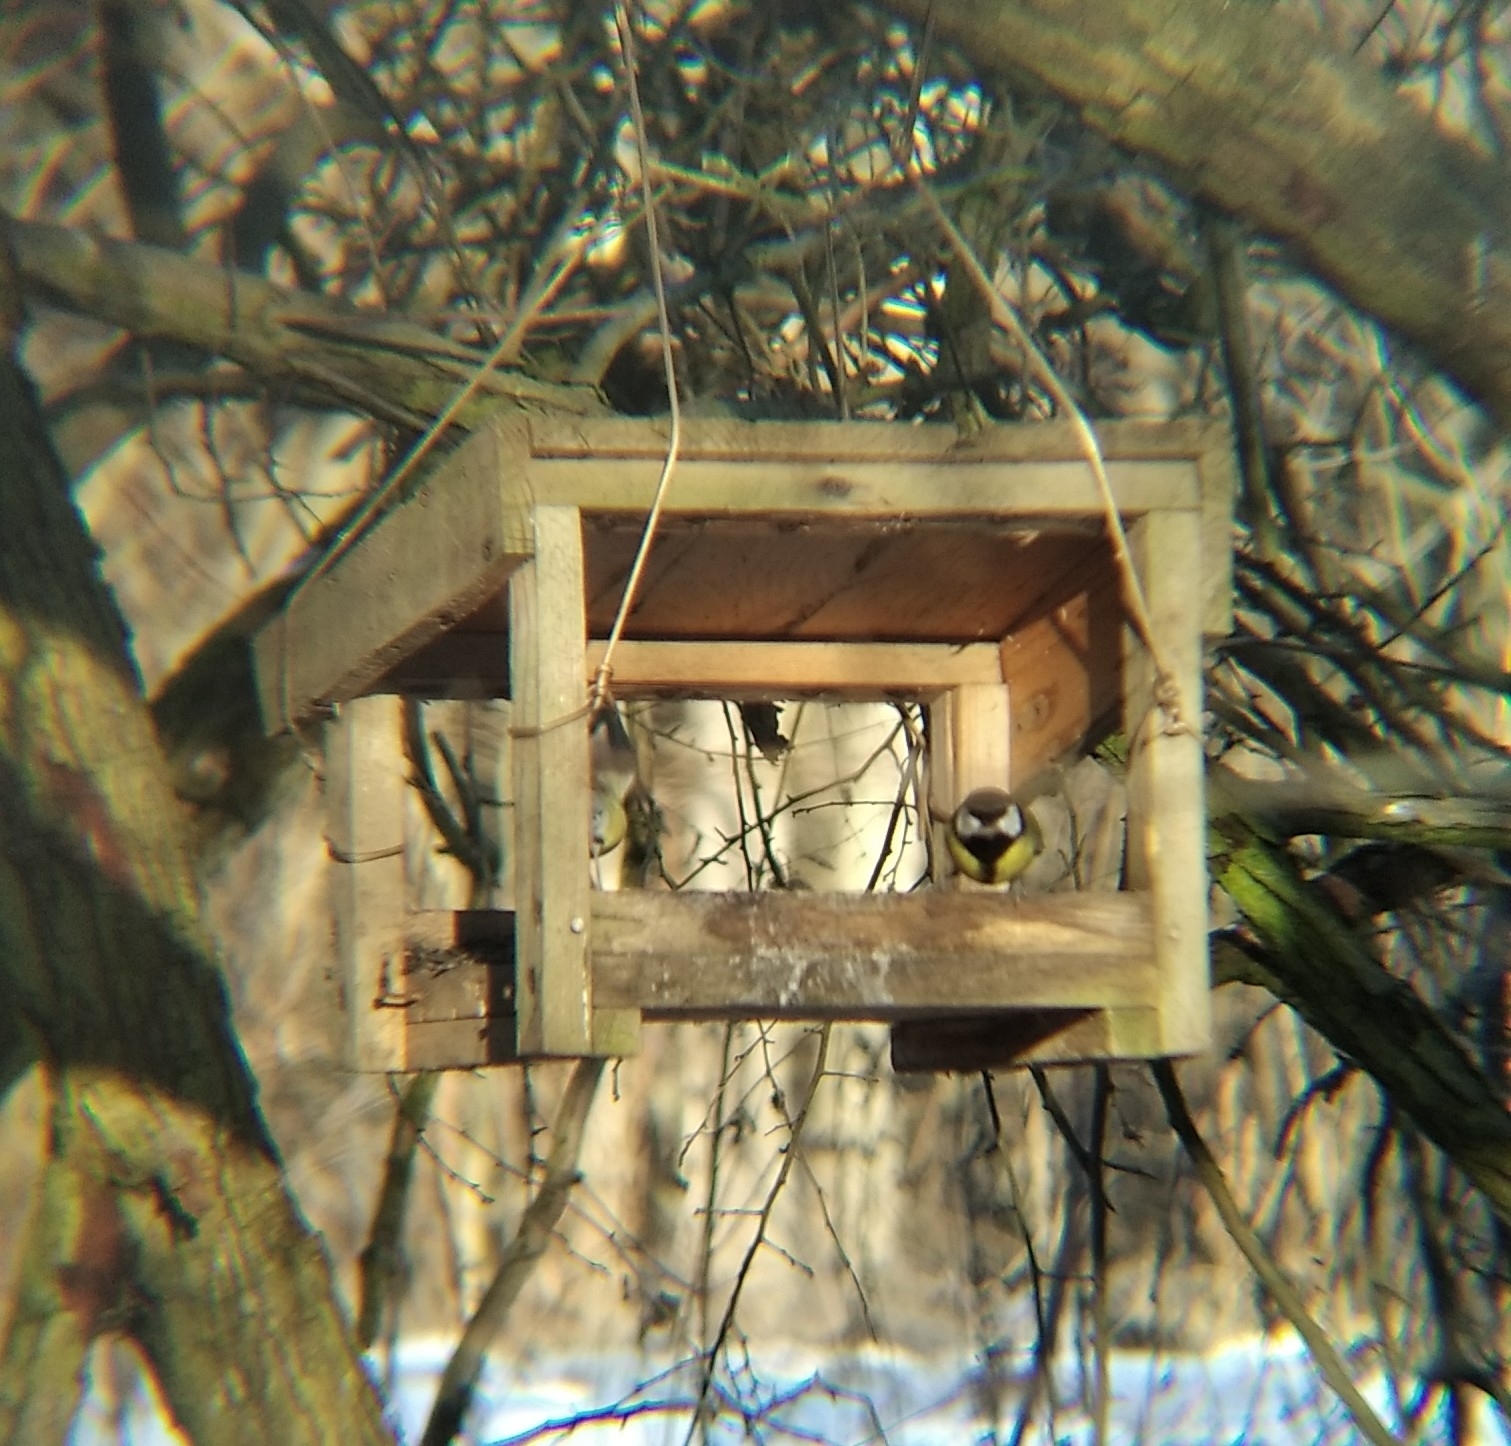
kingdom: Animalia
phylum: Chordata
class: Aves
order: Passeriformes
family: Paridae
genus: Parus
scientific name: Parus major
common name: Great tit
